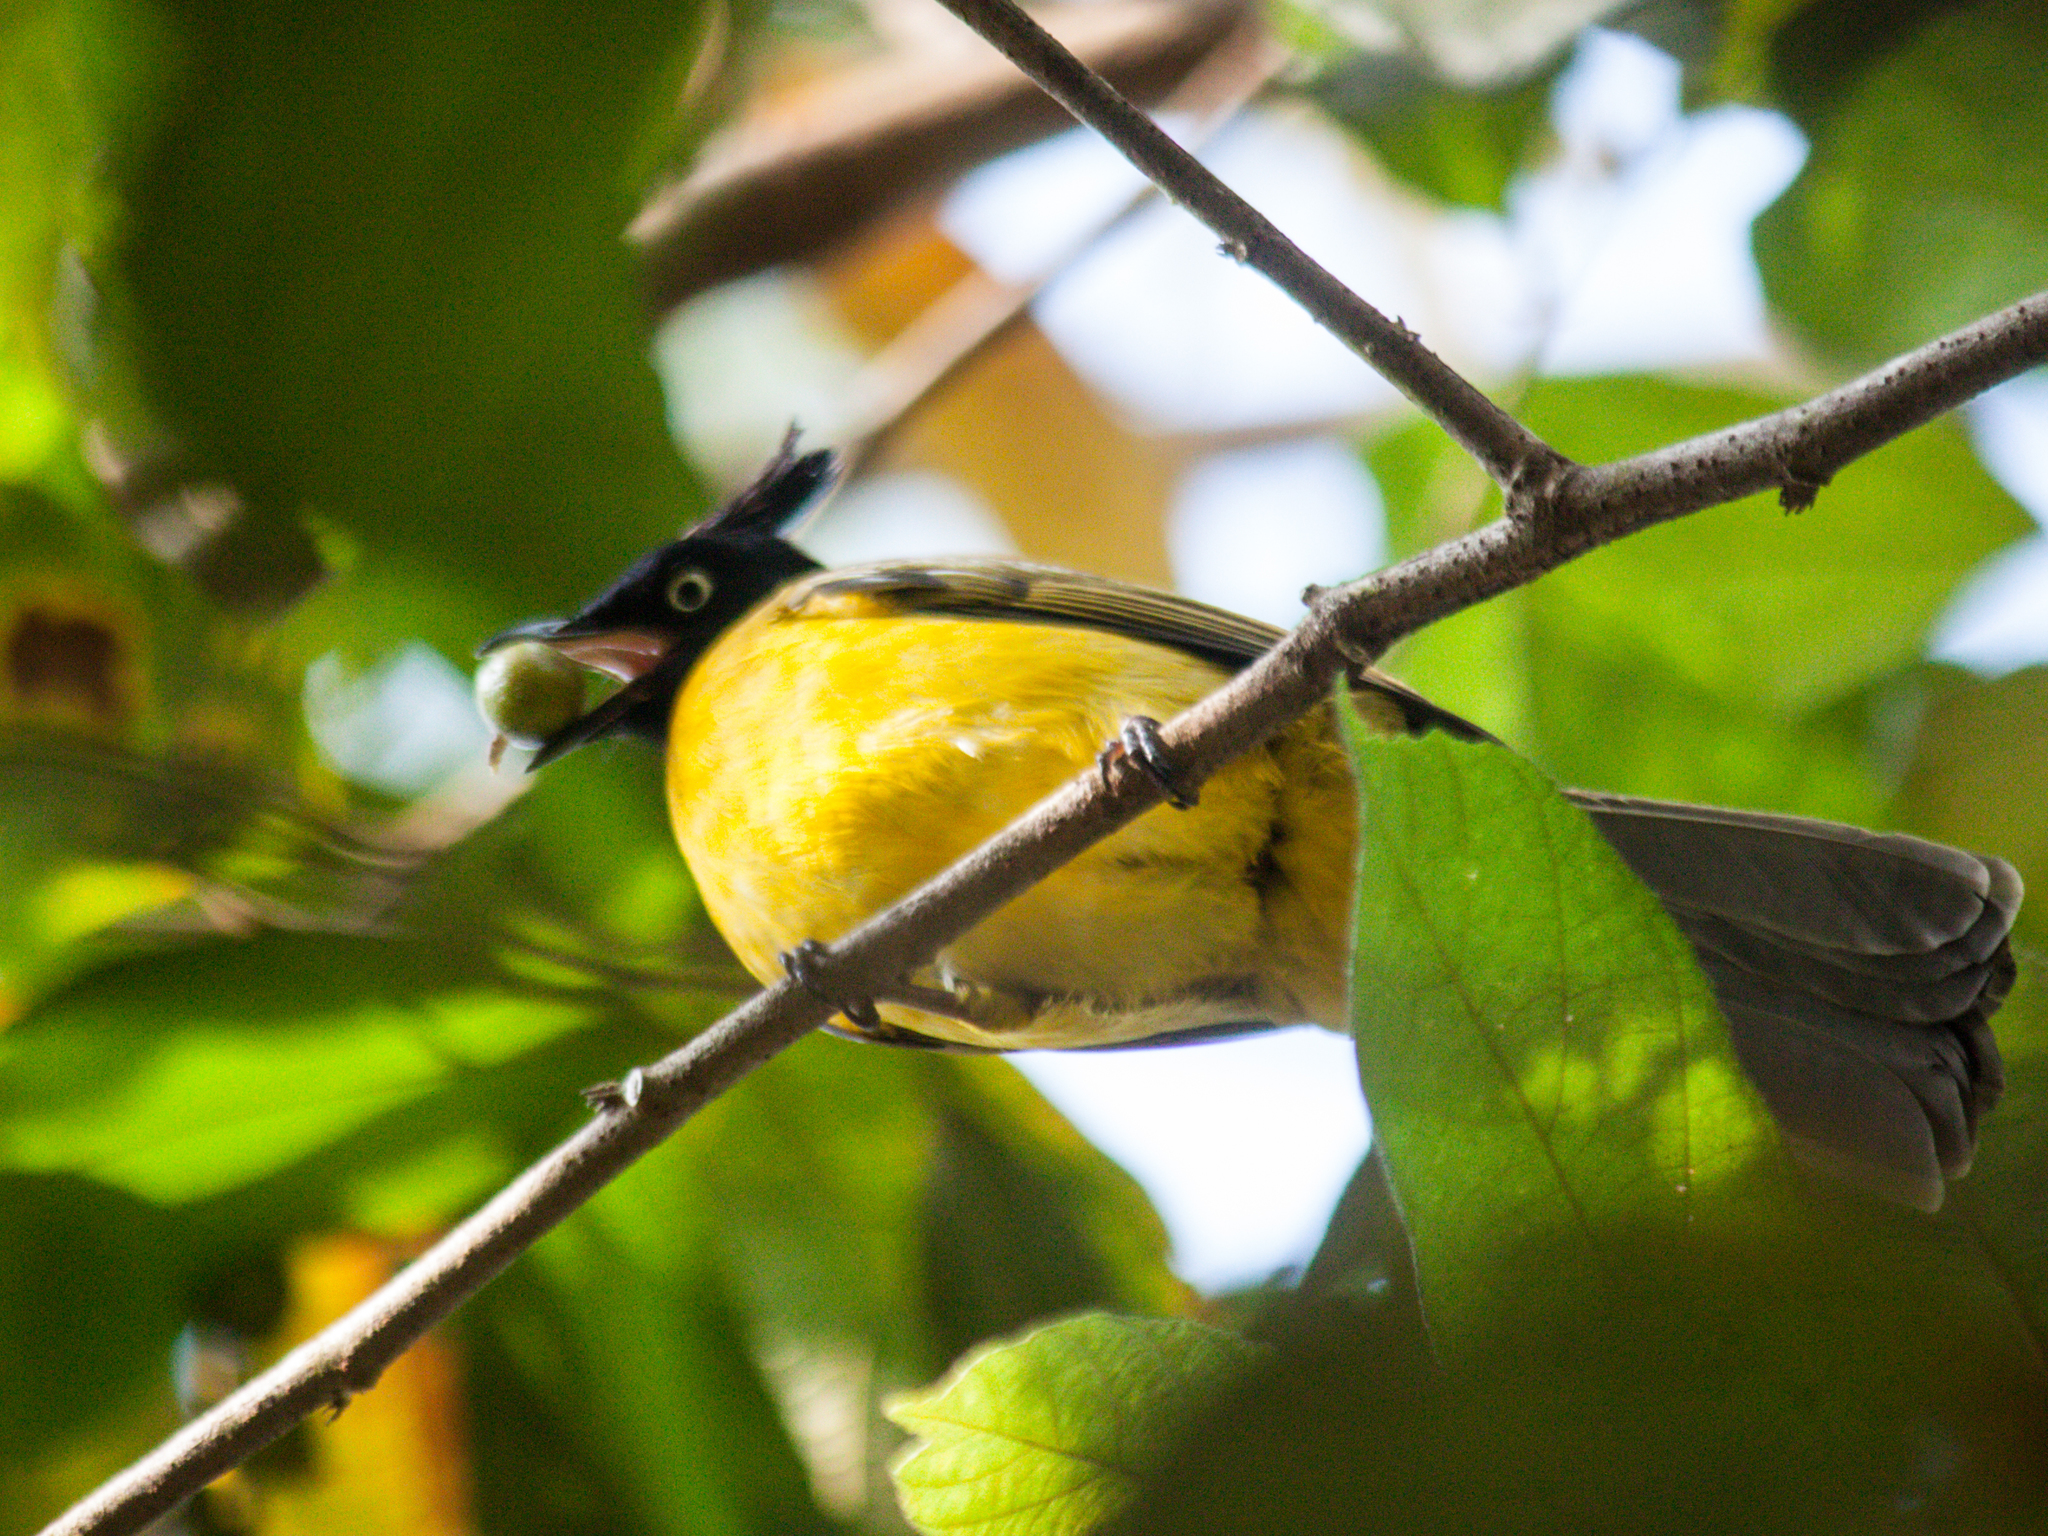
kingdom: Animalia
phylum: Chordata
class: Aves
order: Passeriformes
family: Pycnonotidae
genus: Pycnonotus
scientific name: Pycnonotus flaviventris
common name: Black-crested bulbul
